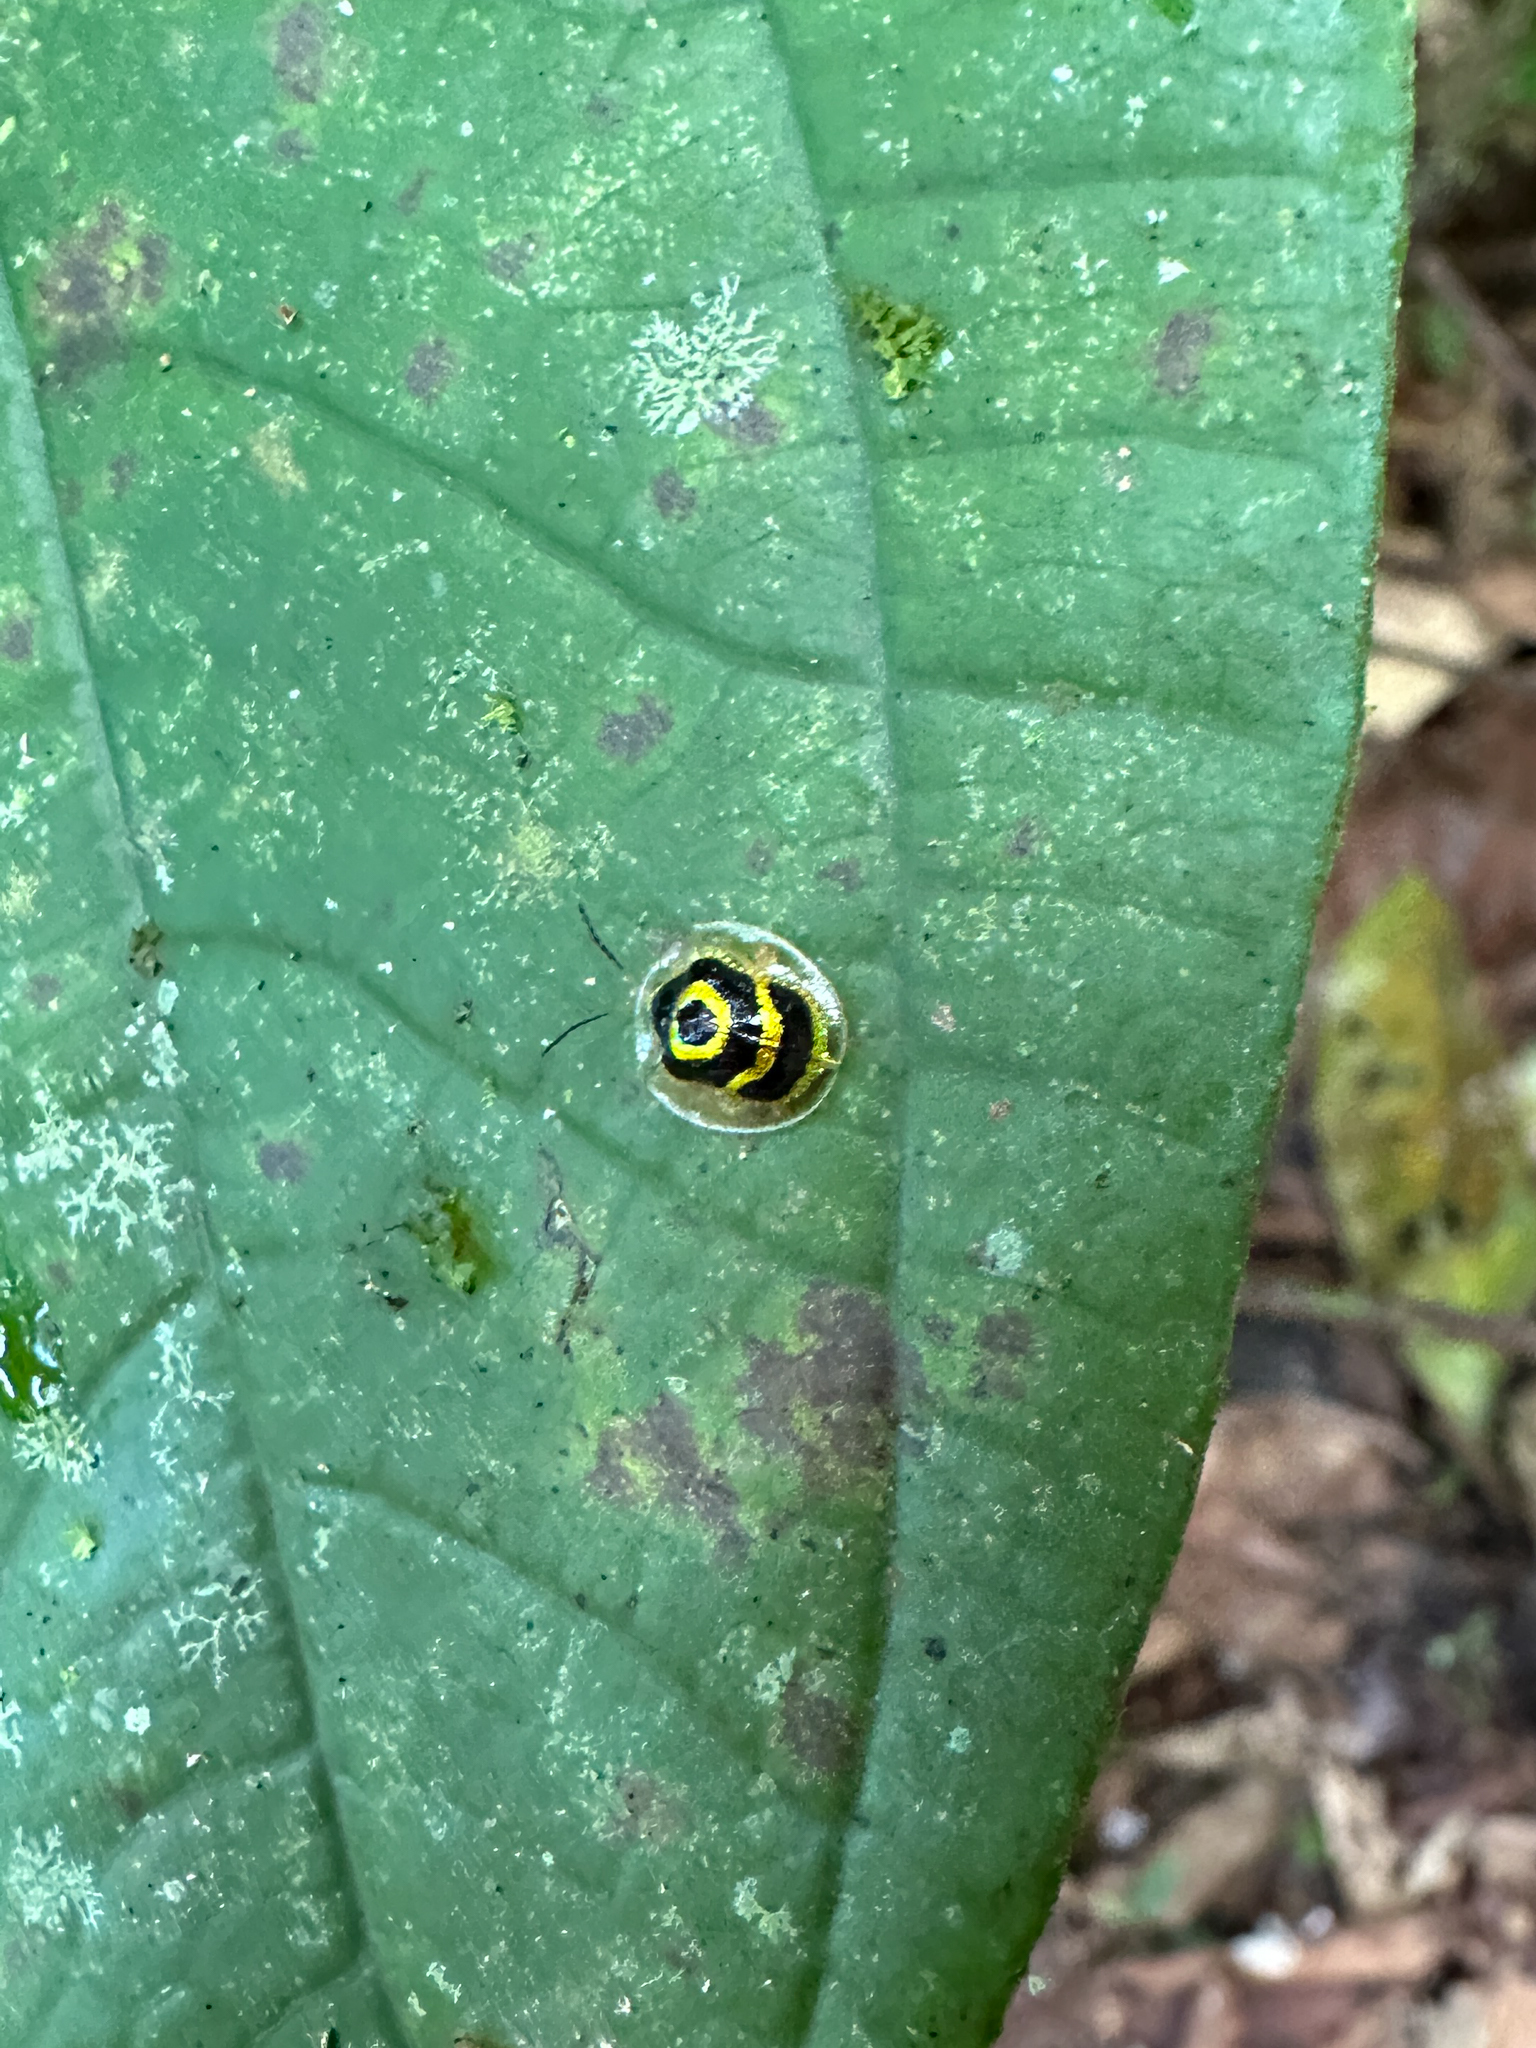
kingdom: Animalia
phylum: Arthropoda
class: Insecta
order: Coleoptera
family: Chrysomelidae
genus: Ischnocodia
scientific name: Ischnocodia annulus
